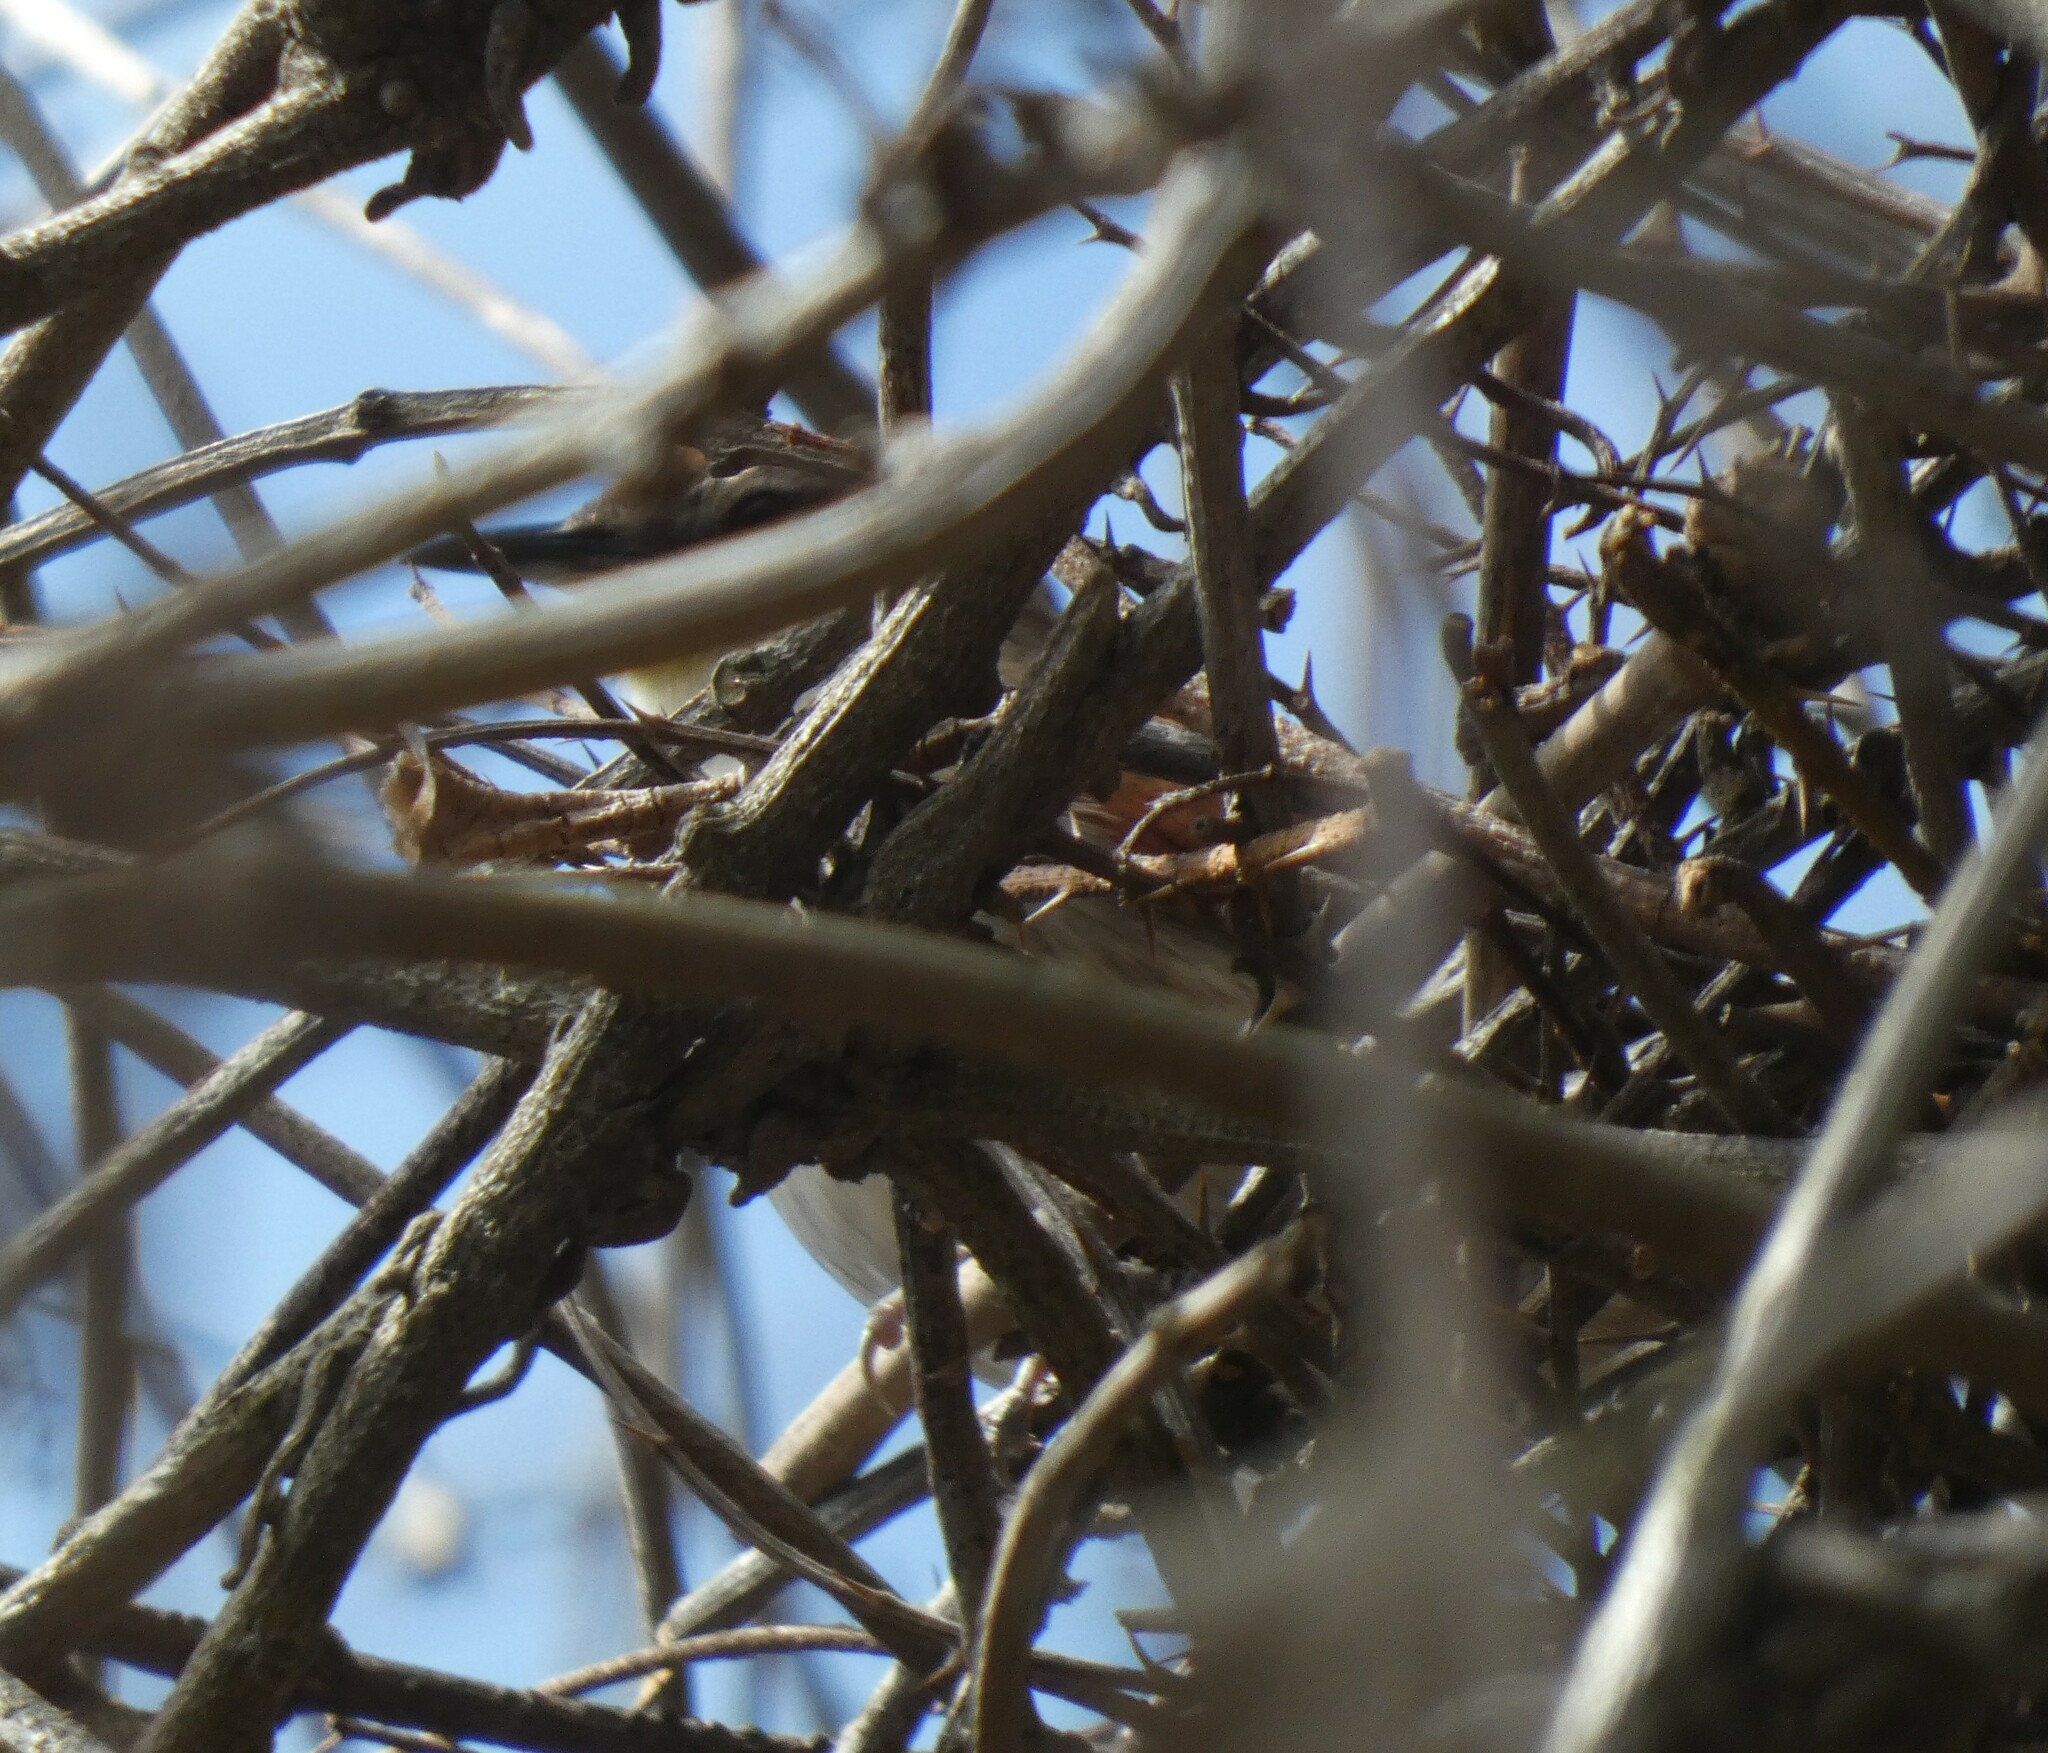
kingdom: Animalia
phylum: Chordata
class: Aves
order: Passeriformes
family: Furnariidae
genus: Certhiaxis
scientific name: Certhiaxis cinnamomeus
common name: Yellow-chinned spinetail
